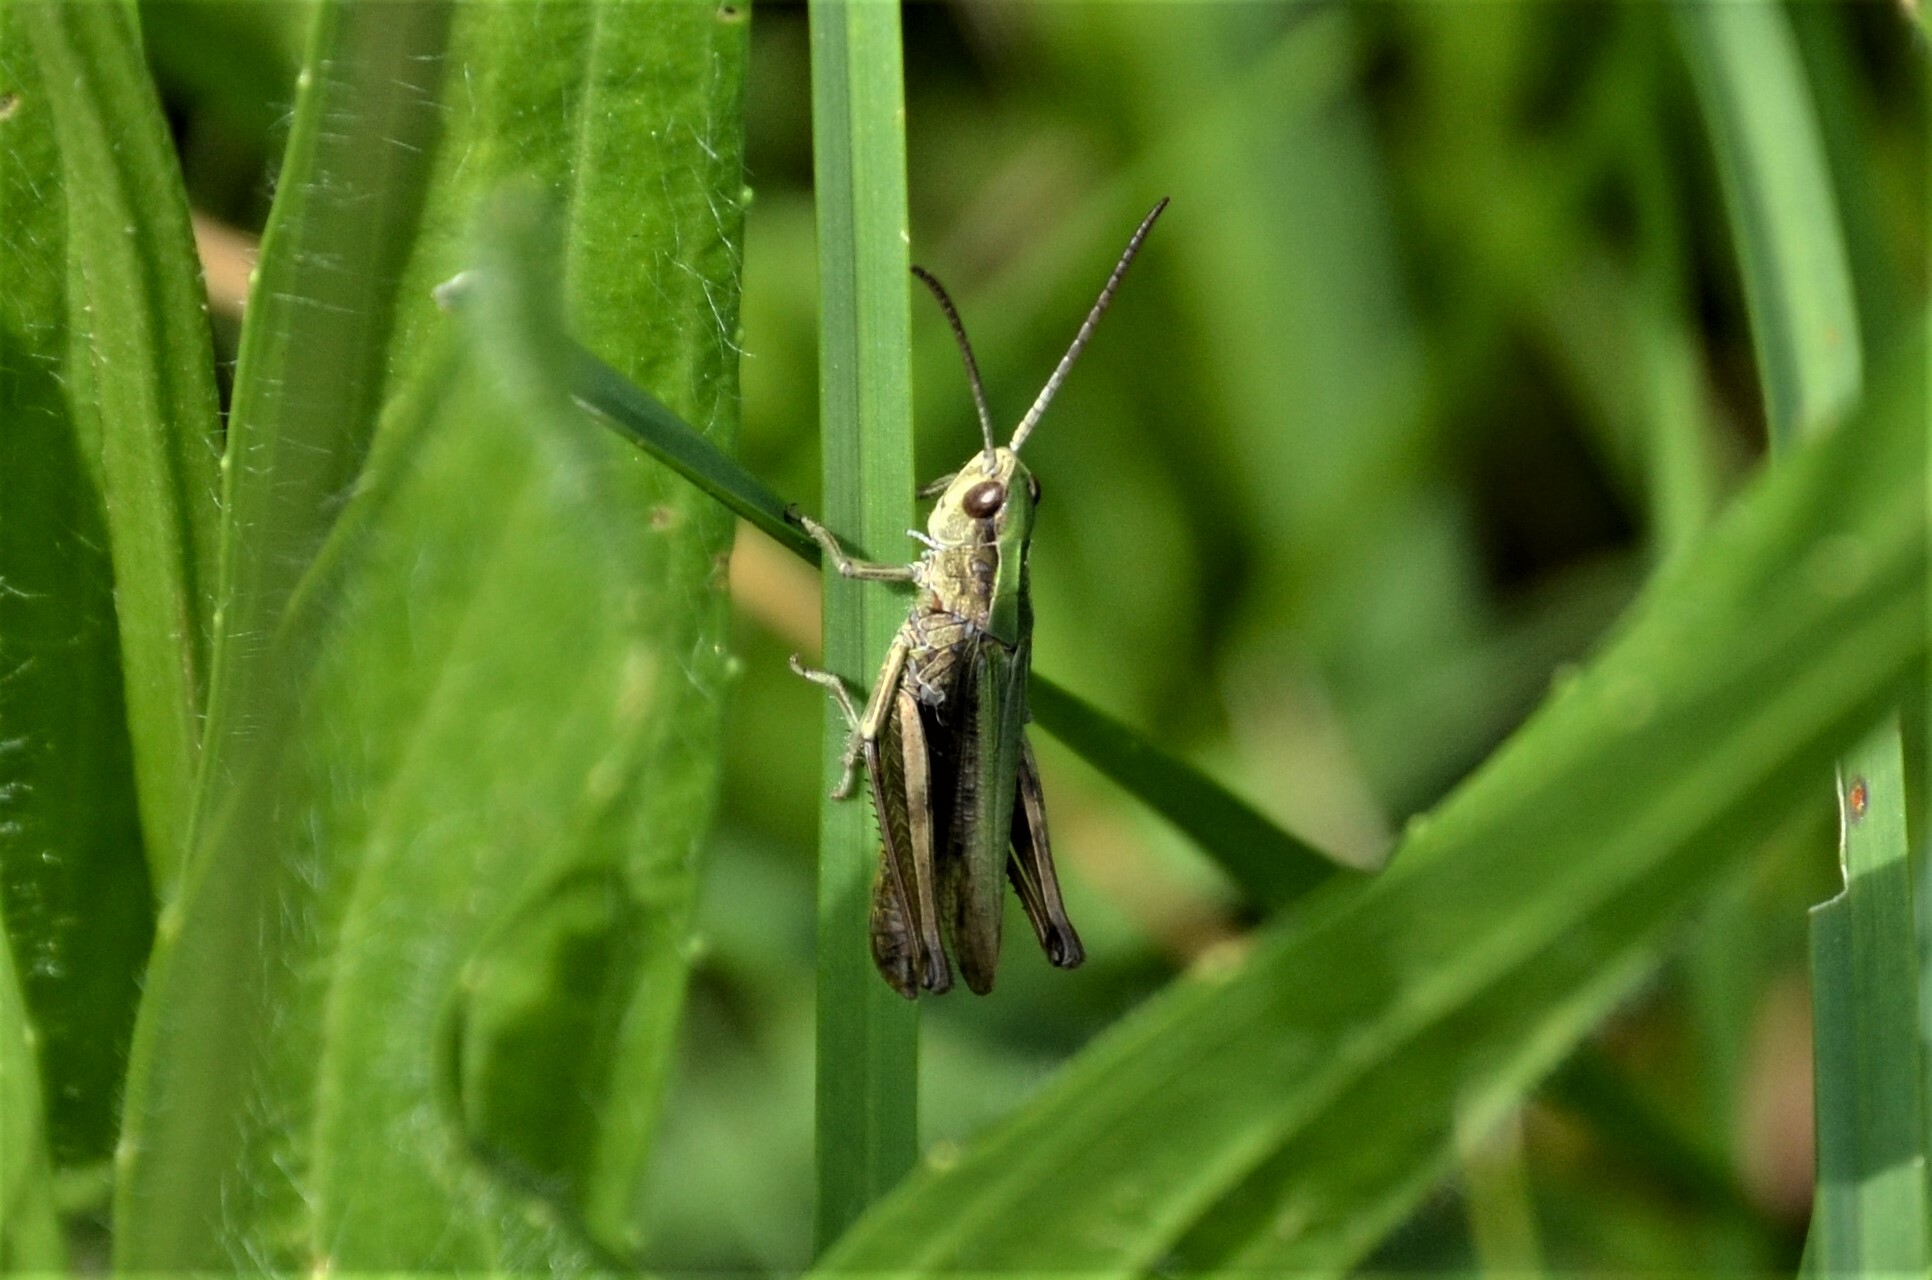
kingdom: Animalia
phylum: Arthropoda
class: Insecta
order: Orthoptera
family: Acrididae
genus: Chorthippus
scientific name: Chorthippus dorsatus
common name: Steppe grasshopper
